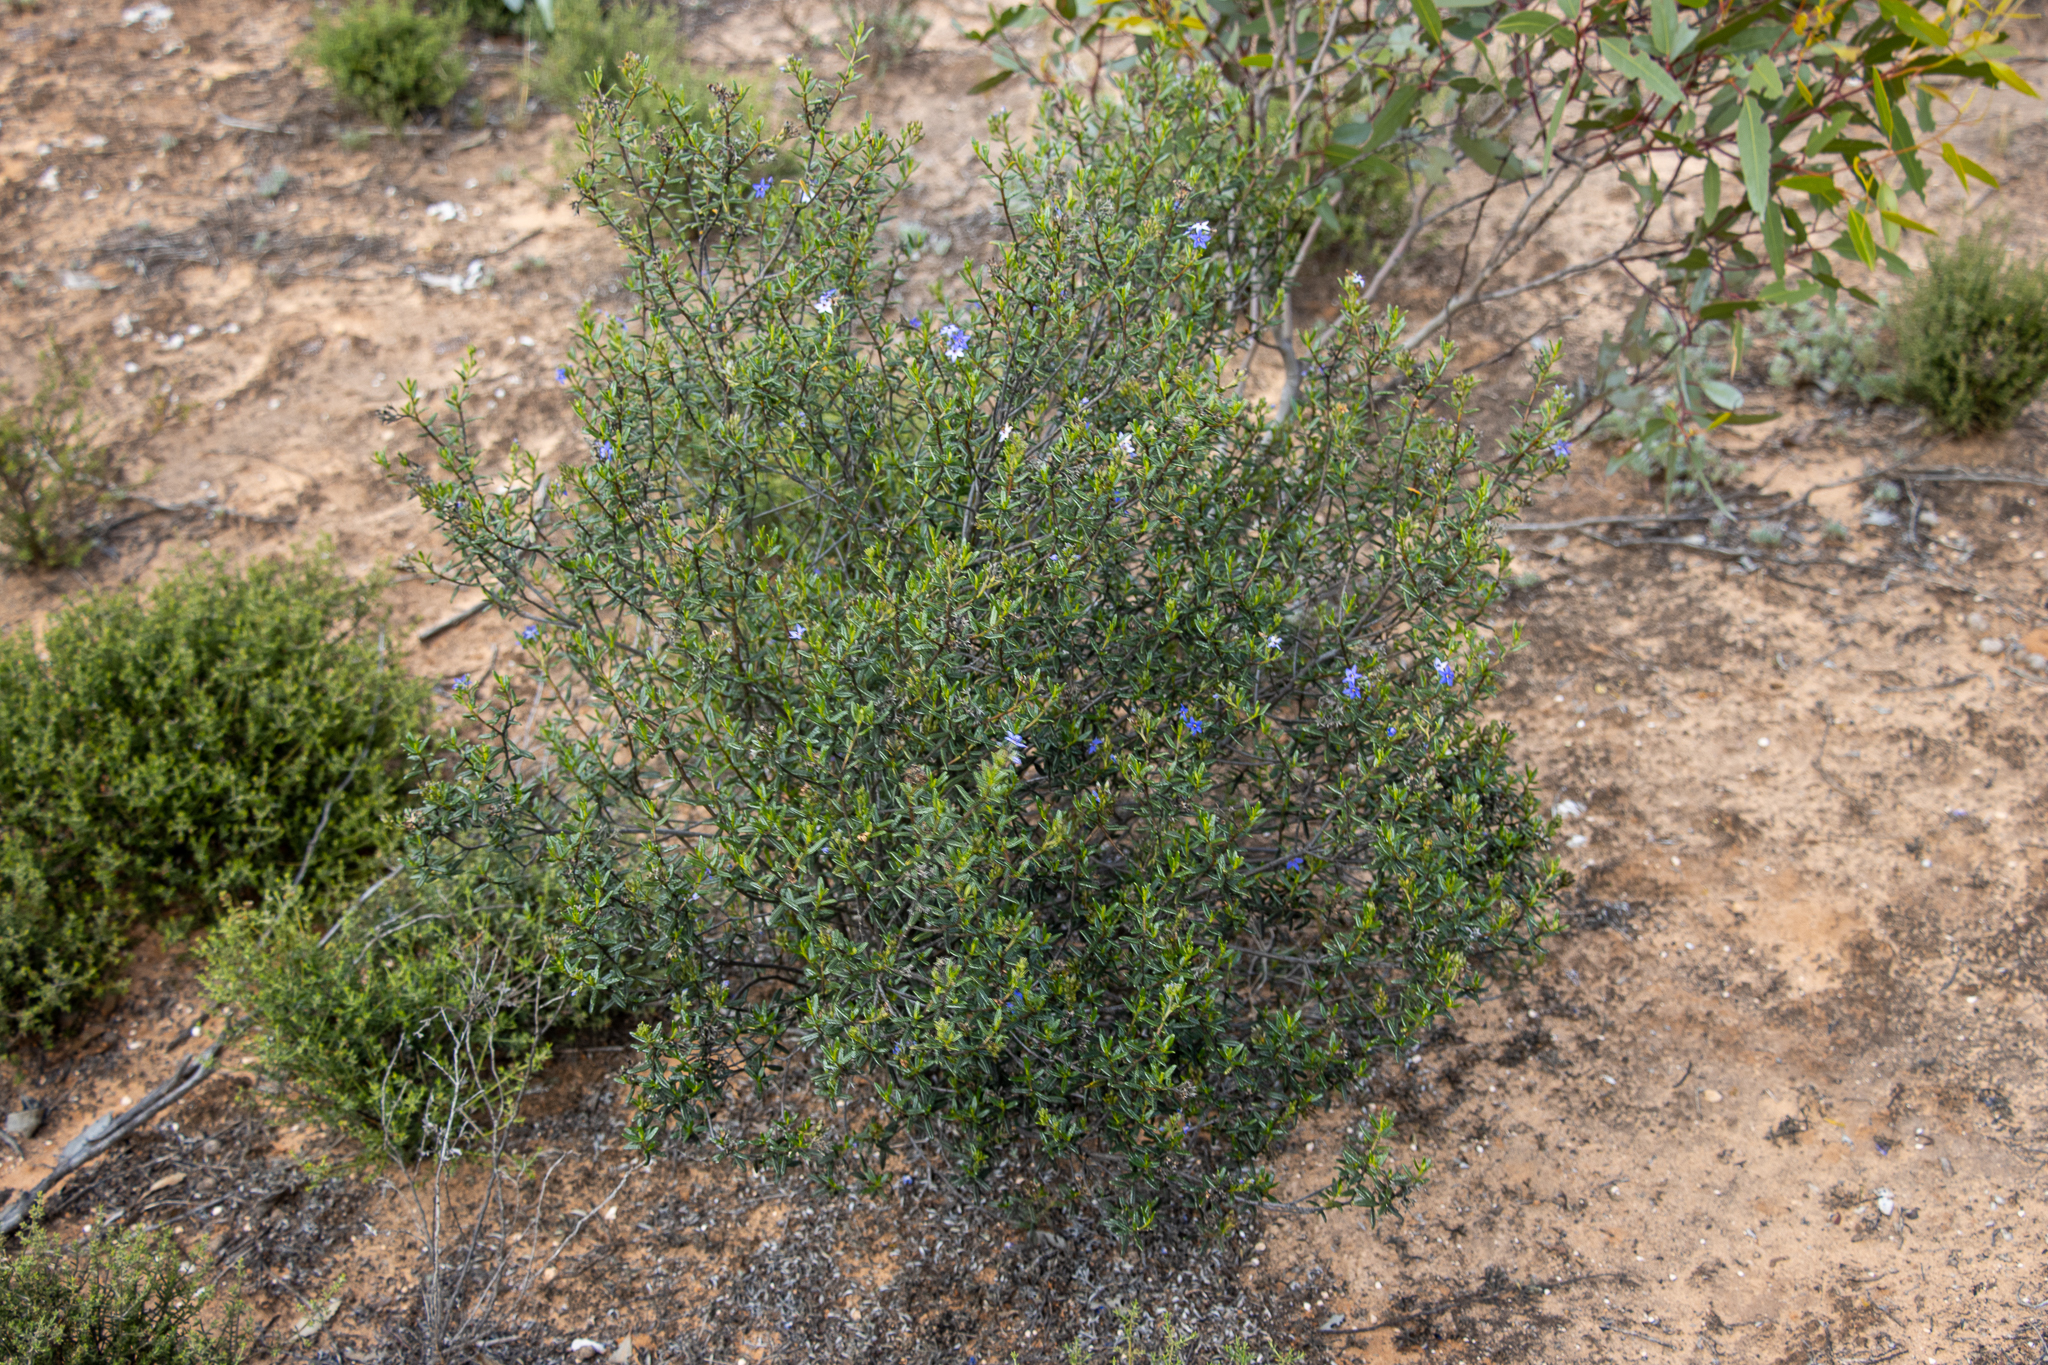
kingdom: Plantae
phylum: Tracheophyta
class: Magnoliopsida
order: Boraginales
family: Ehretiaceae
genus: Halgania
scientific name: Halgania andromedifolia
